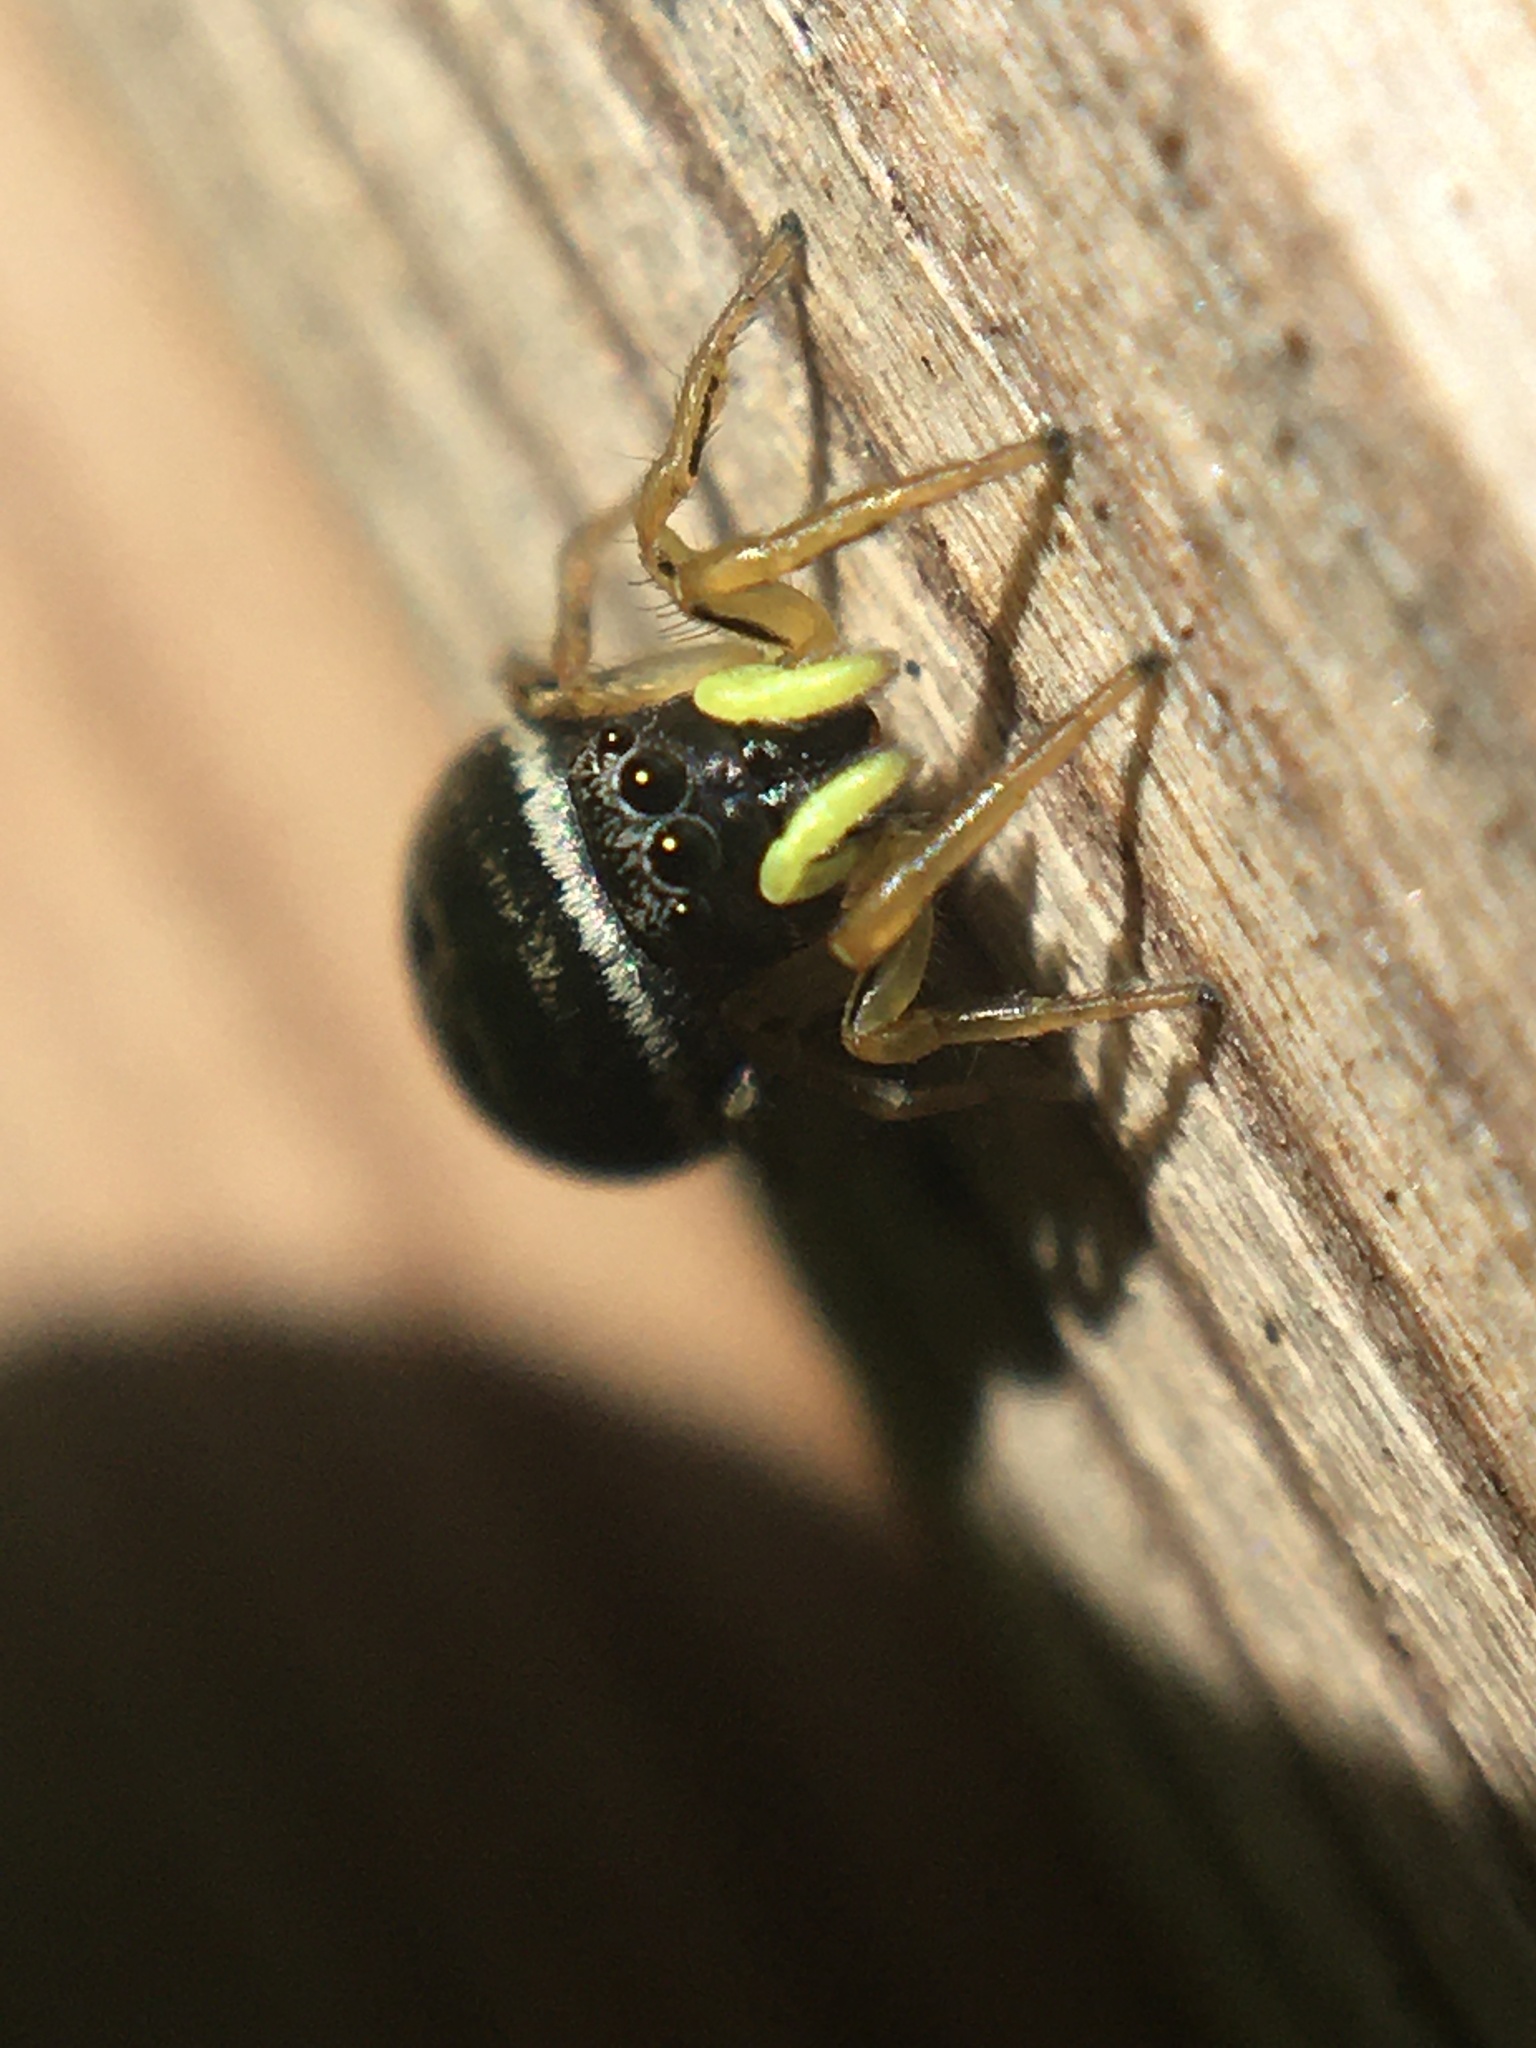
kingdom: Animalia
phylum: Arthropoda
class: Arachnida
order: Araneae
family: Salticidae
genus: Heliophanus
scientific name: Heliophanus cupreus
